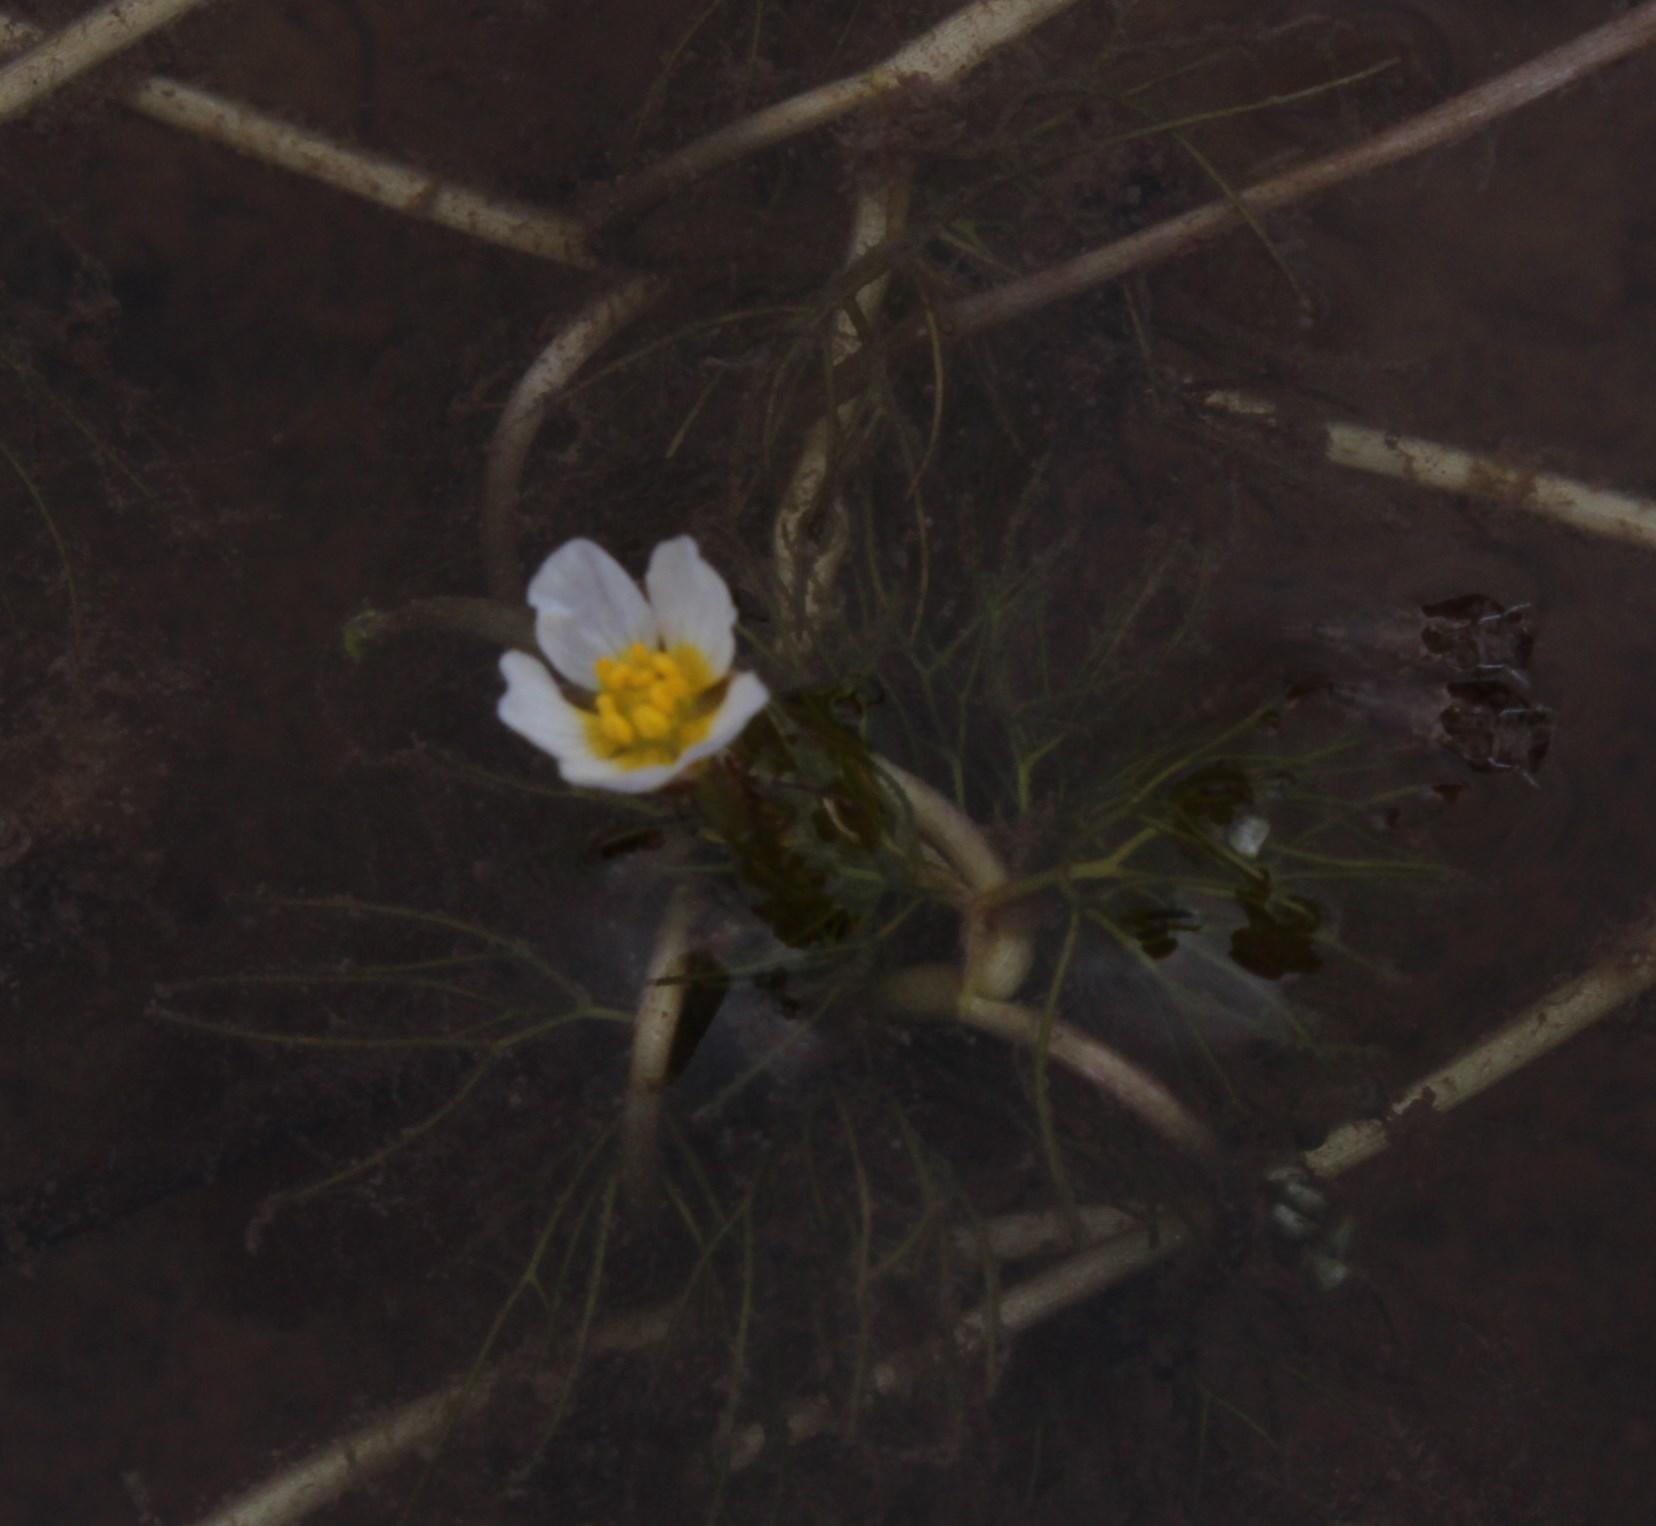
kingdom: Plantae
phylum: Tracheophyta
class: Magnoliopsida
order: Ranunculales
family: Ranunculaceae
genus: Ranunculus
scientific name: Ranunculus rionii
